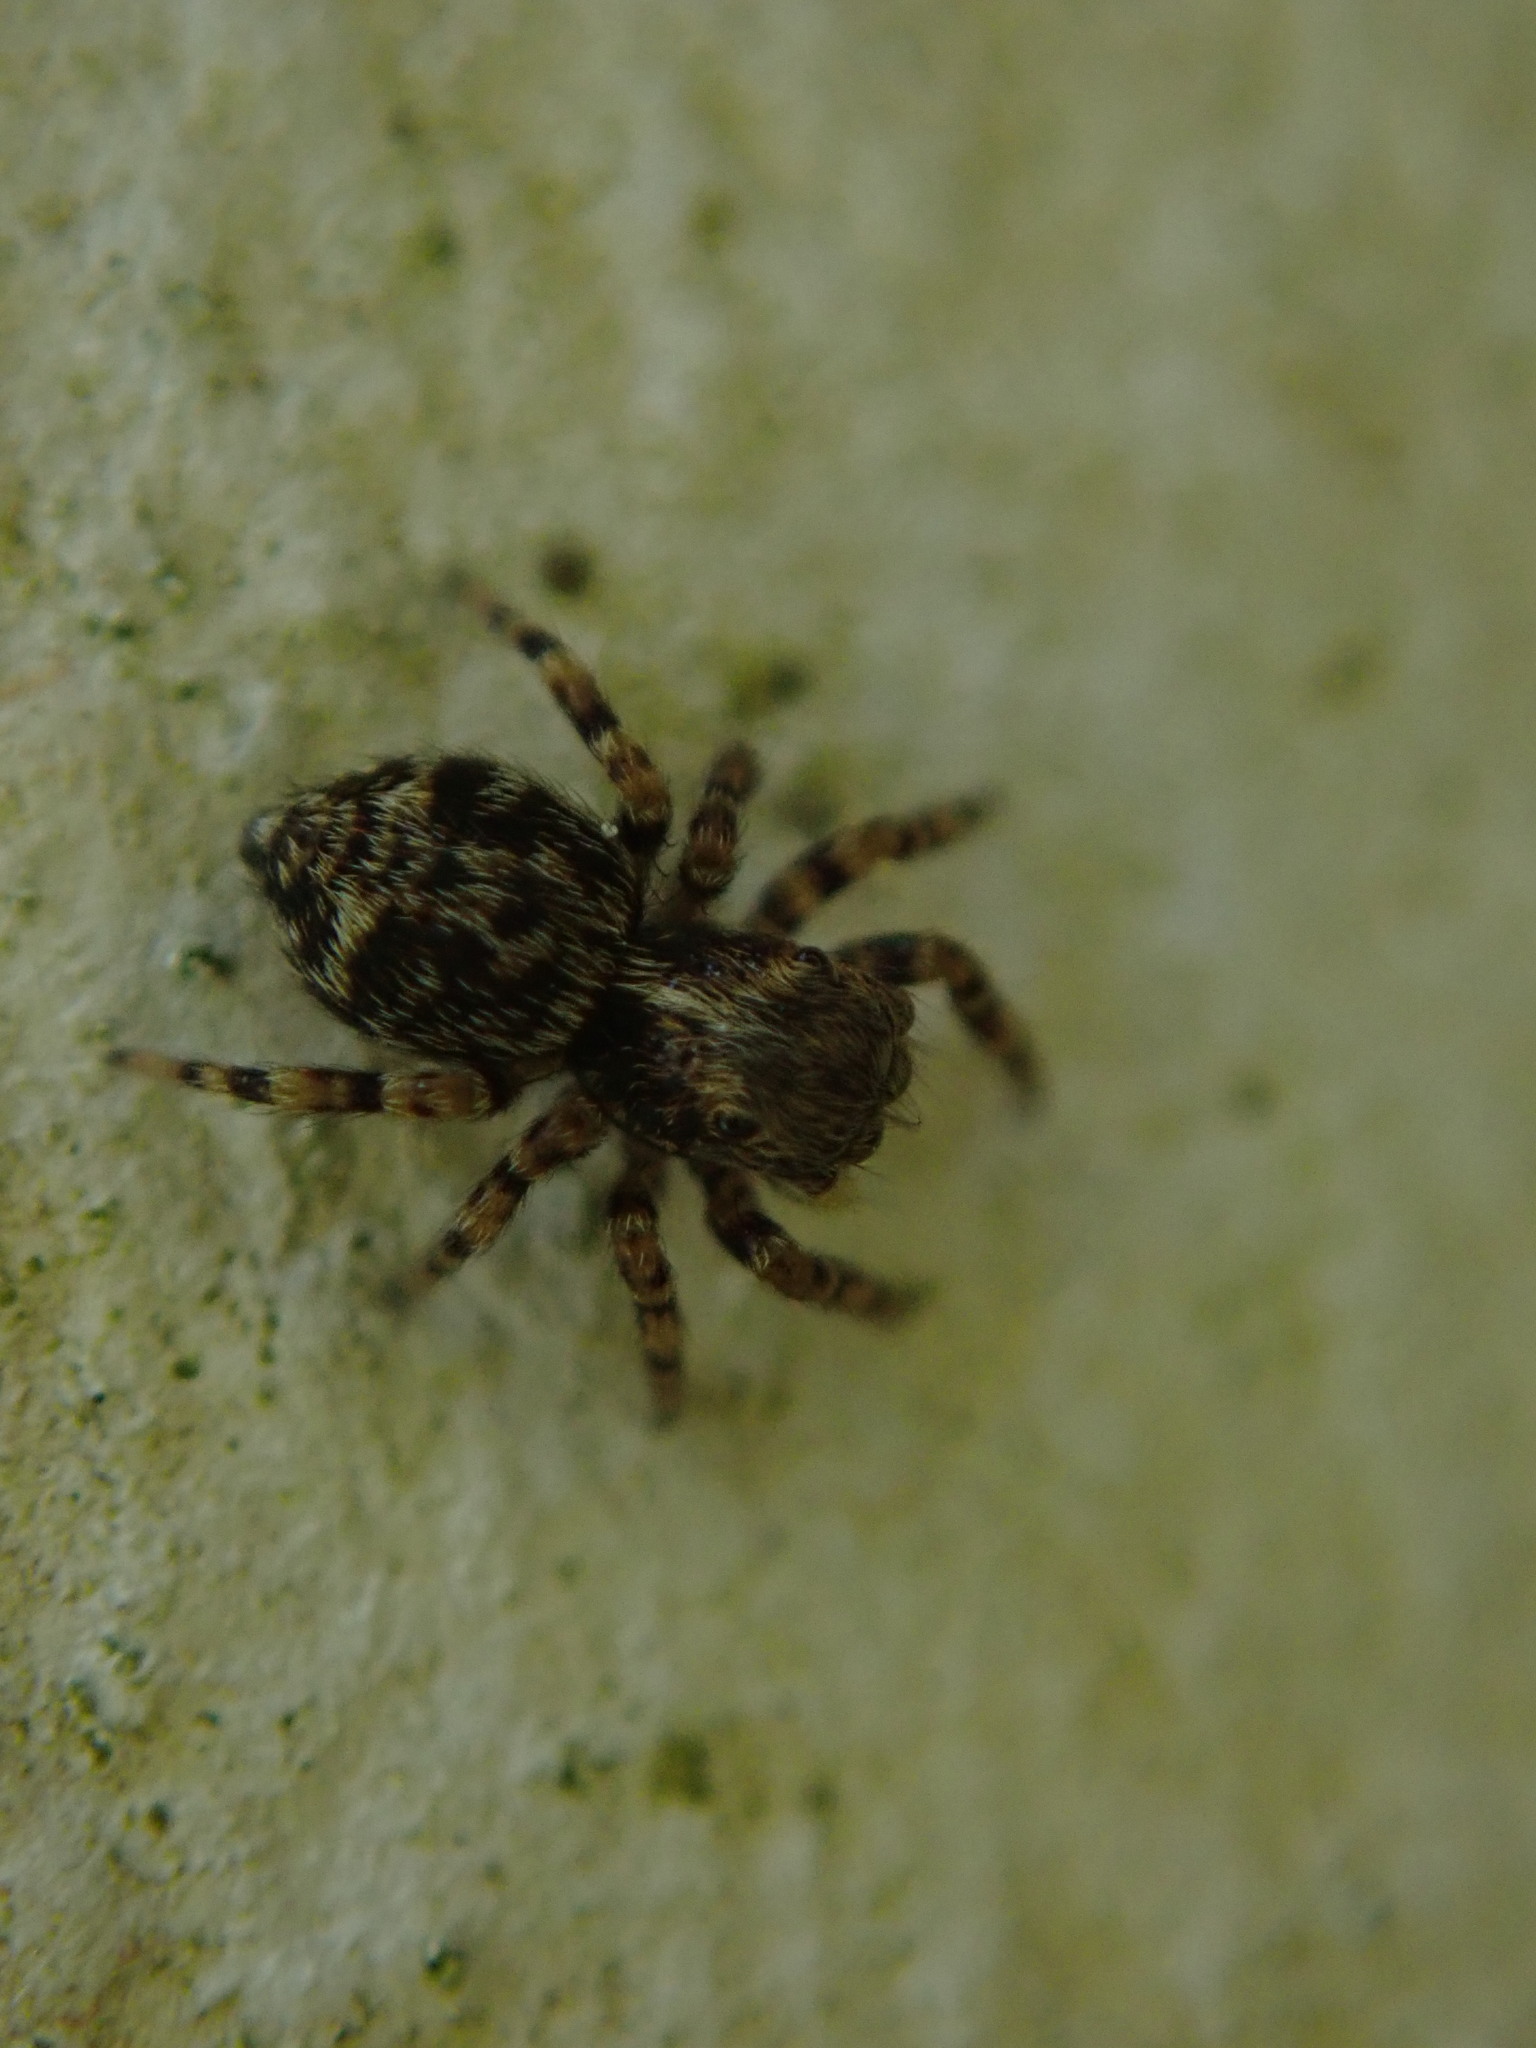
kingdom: Animalia
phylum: Arthropoda
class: Arachnida
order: Araneae
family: Salticidae
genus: Pseudeuophrys
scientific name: Pseudeuophrys erratica
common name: Jumping spider
